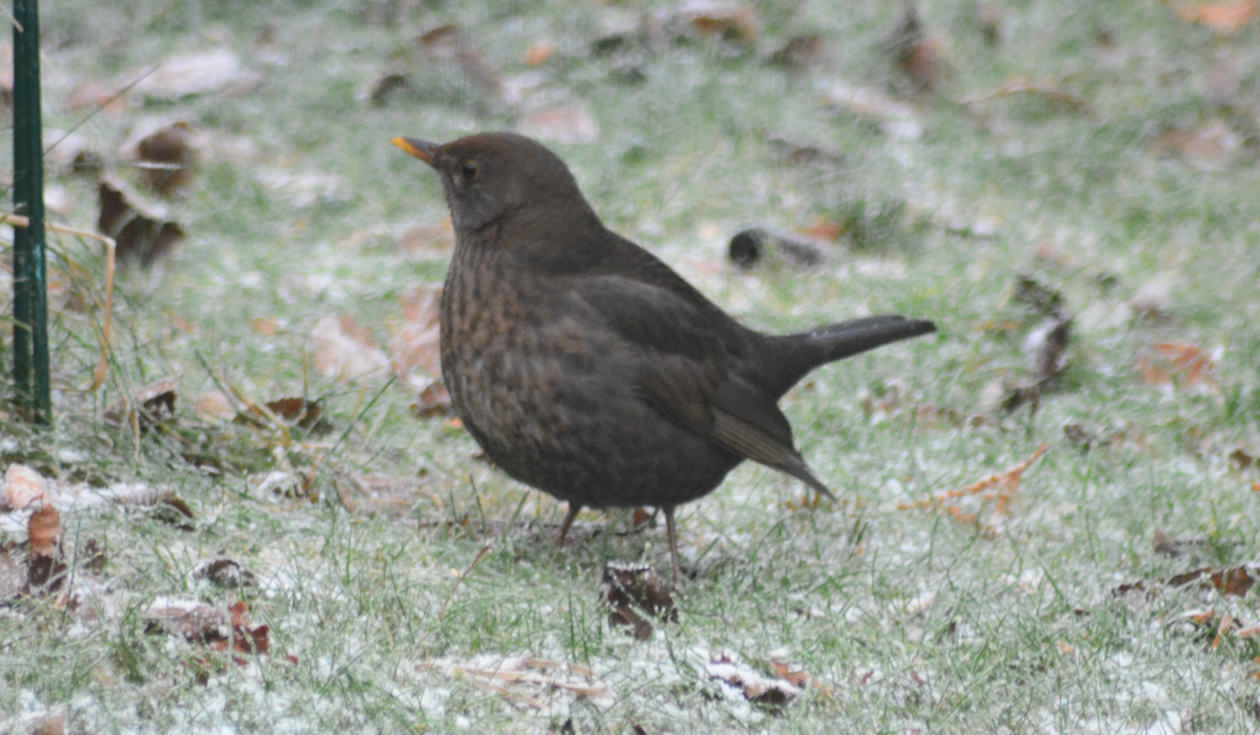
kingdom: Animalia
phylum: Chordata
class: Aves
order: Passeriformes
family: Turdidae
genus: Turdus
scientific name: Turdus merula
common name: Common blackbird
